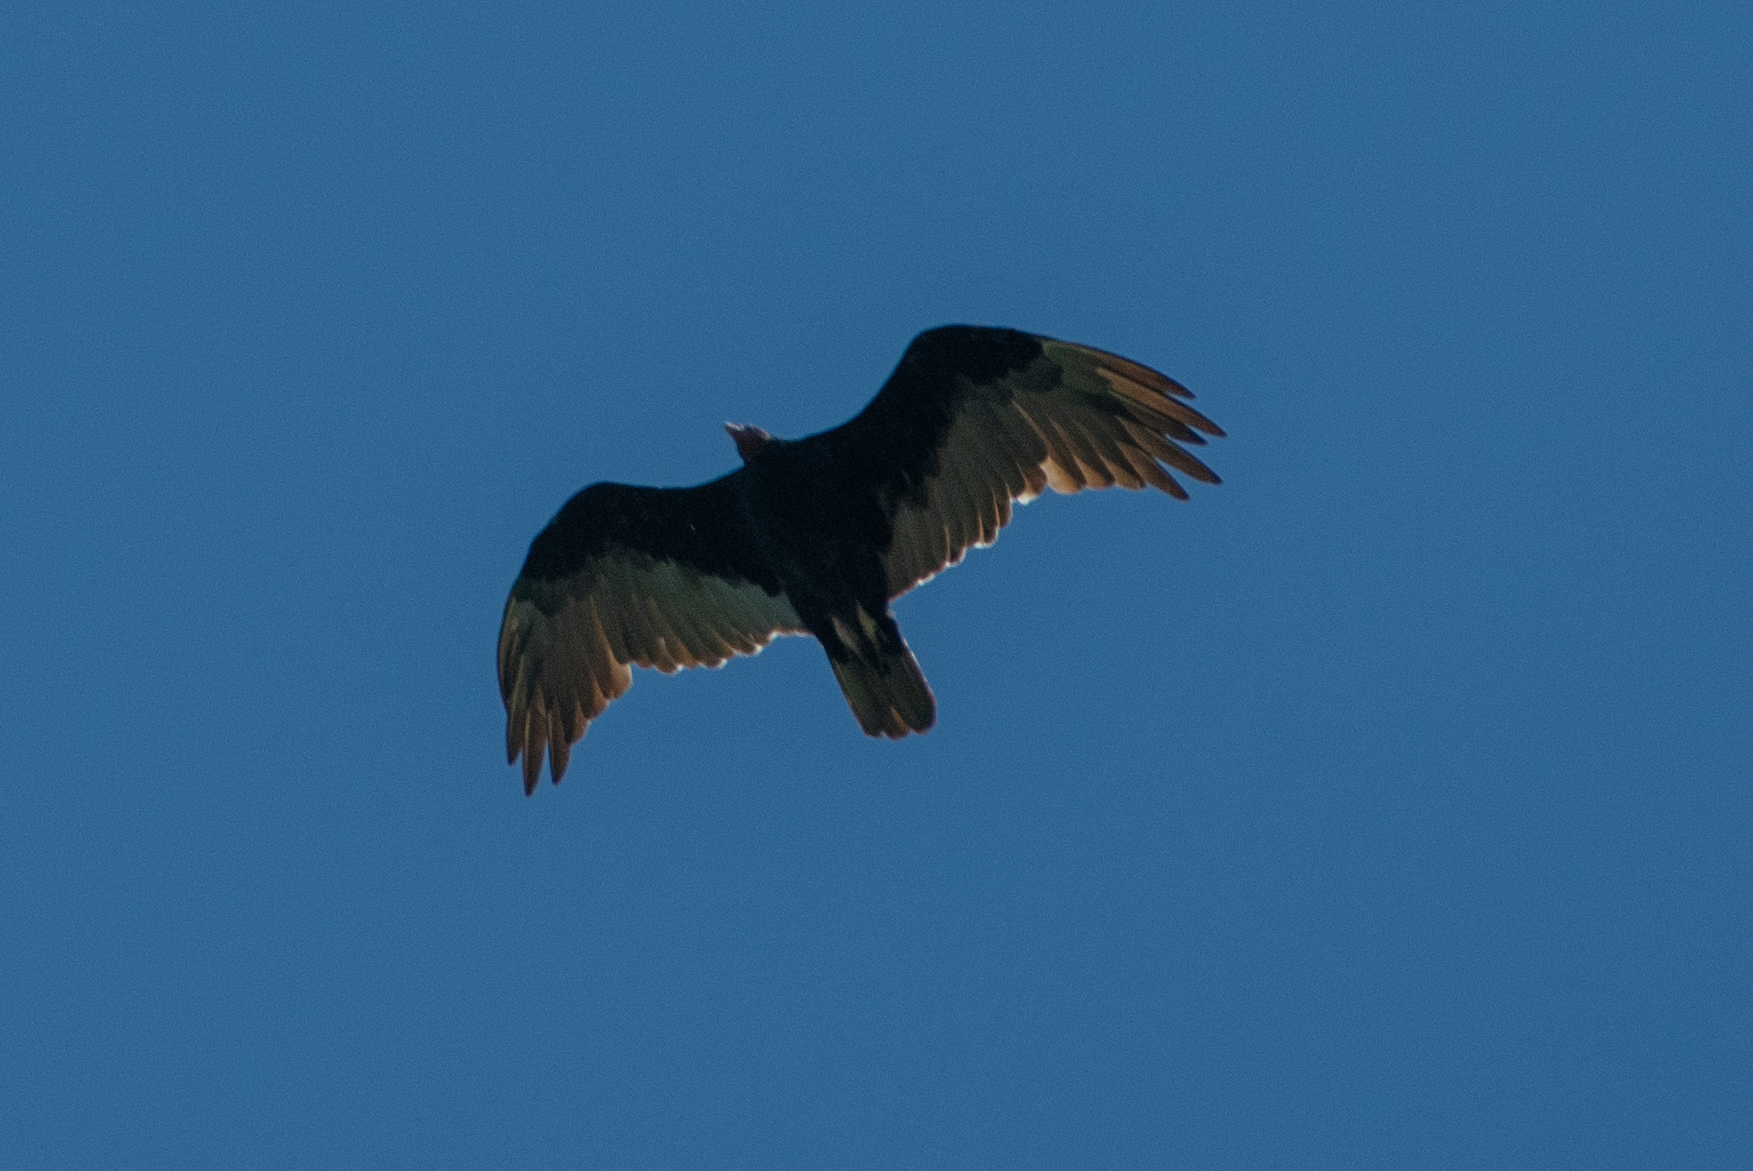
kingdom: Animalia
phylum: Chordata
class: Aves
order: Accipitriformes
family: Cathartidae
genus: Cathartes
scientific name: Cathartes aura
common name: Turkey vulture
